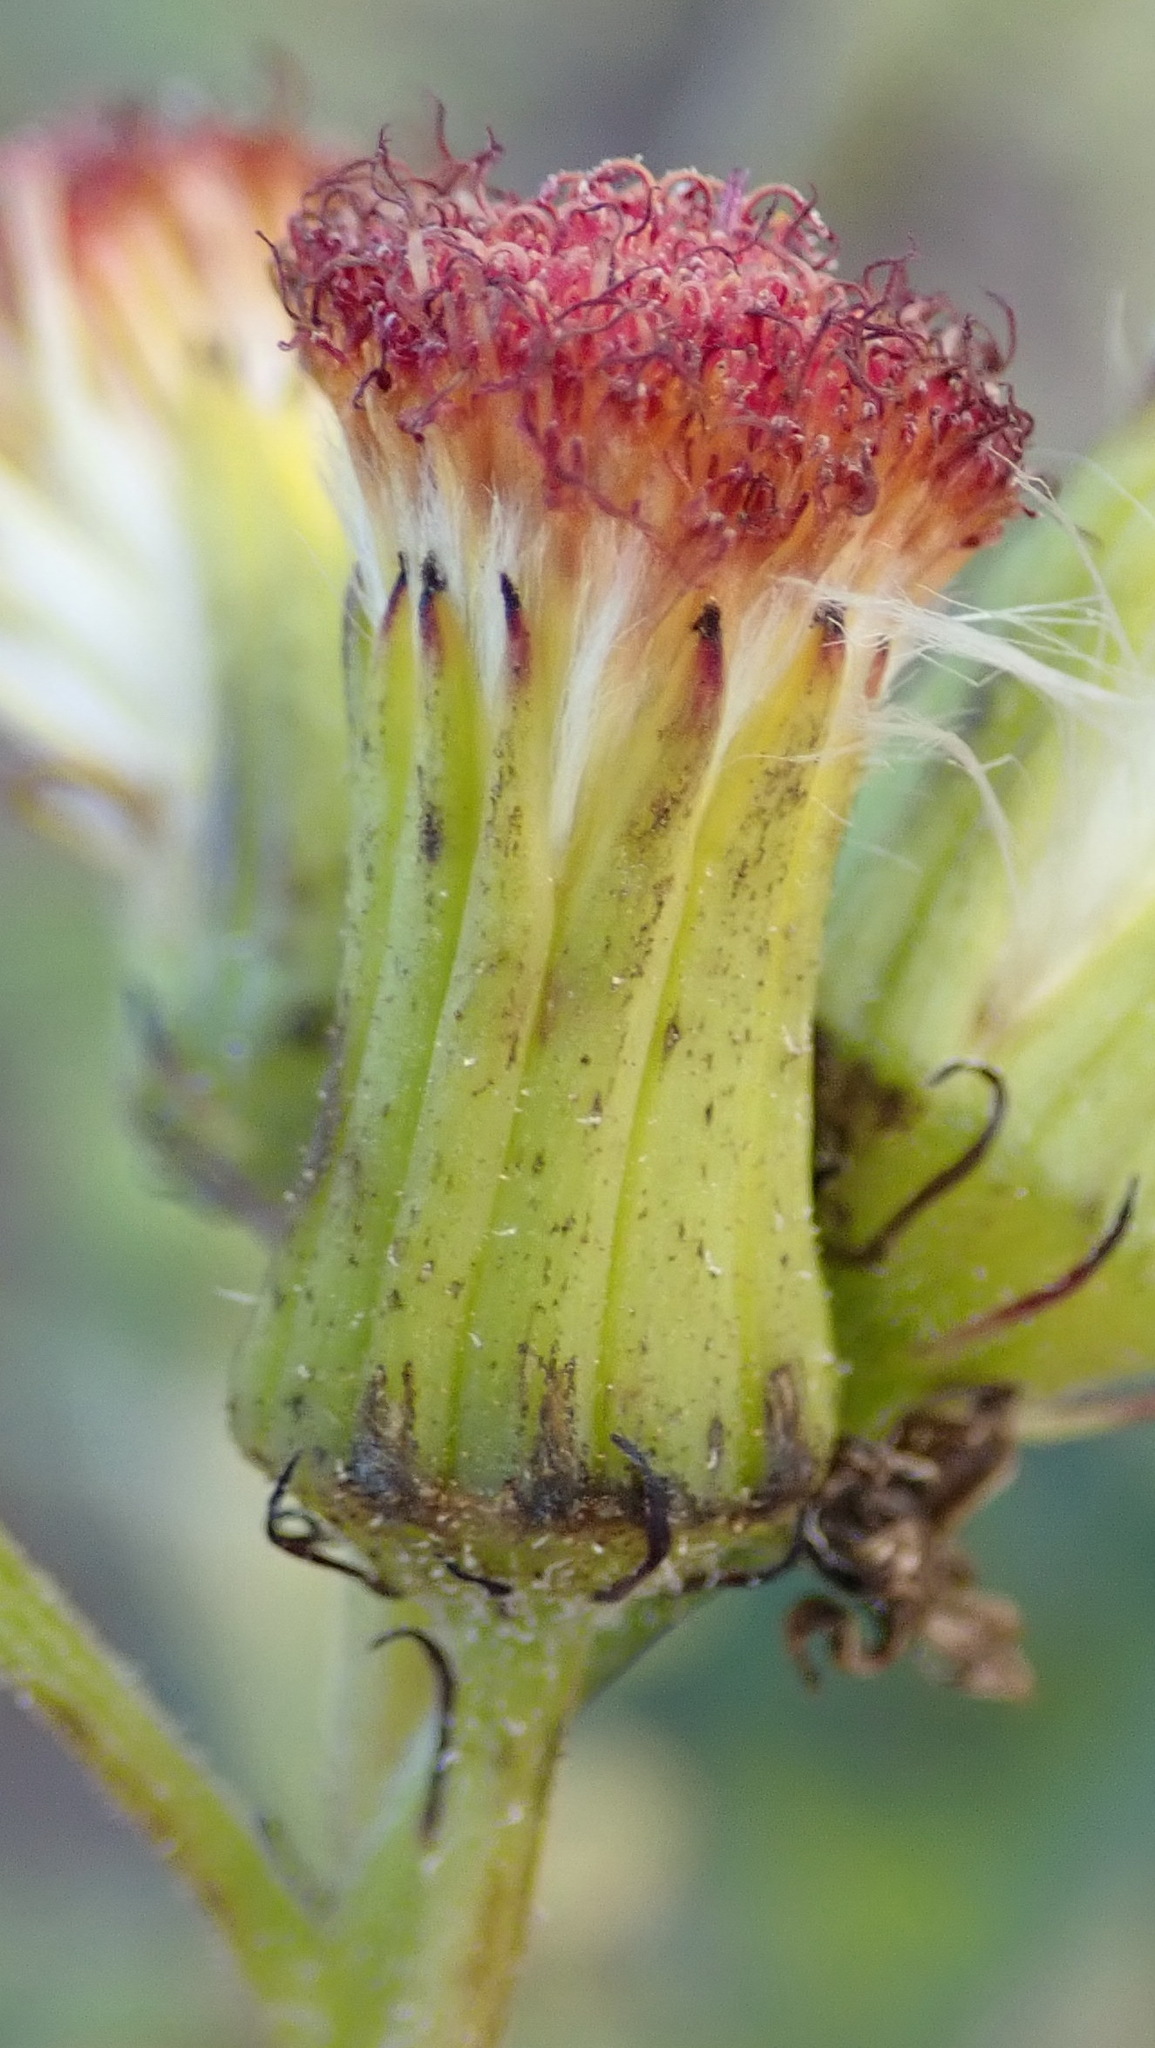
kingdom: Plantae
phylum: Tracheophyta
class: Magnoliopsida
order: Asterales
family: Asteraceae
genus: Crassocephalum
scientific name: Crassocephalum crepidioides
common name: Redflower ragleaf
